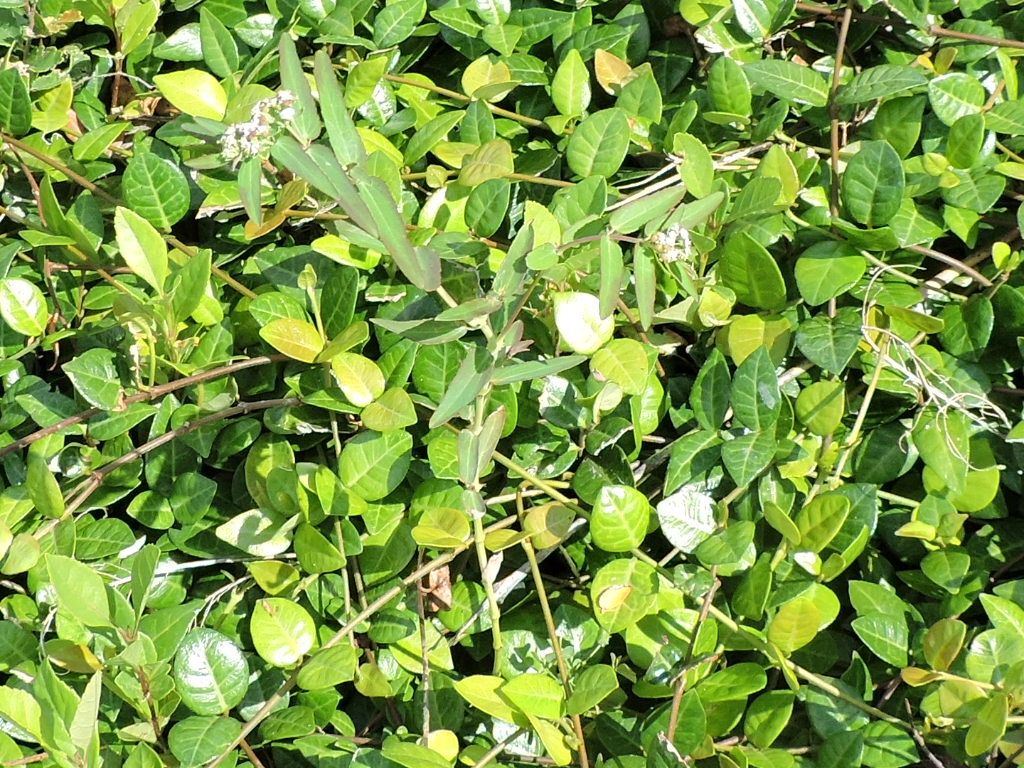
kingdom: Plantae
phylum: Tracheophyta
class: Magnoliopsida
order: Malpighiales
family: Euphorbiaceae
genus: Euphorbia
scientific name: Euphorbia hypericifolia
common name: Graceful sandmat
